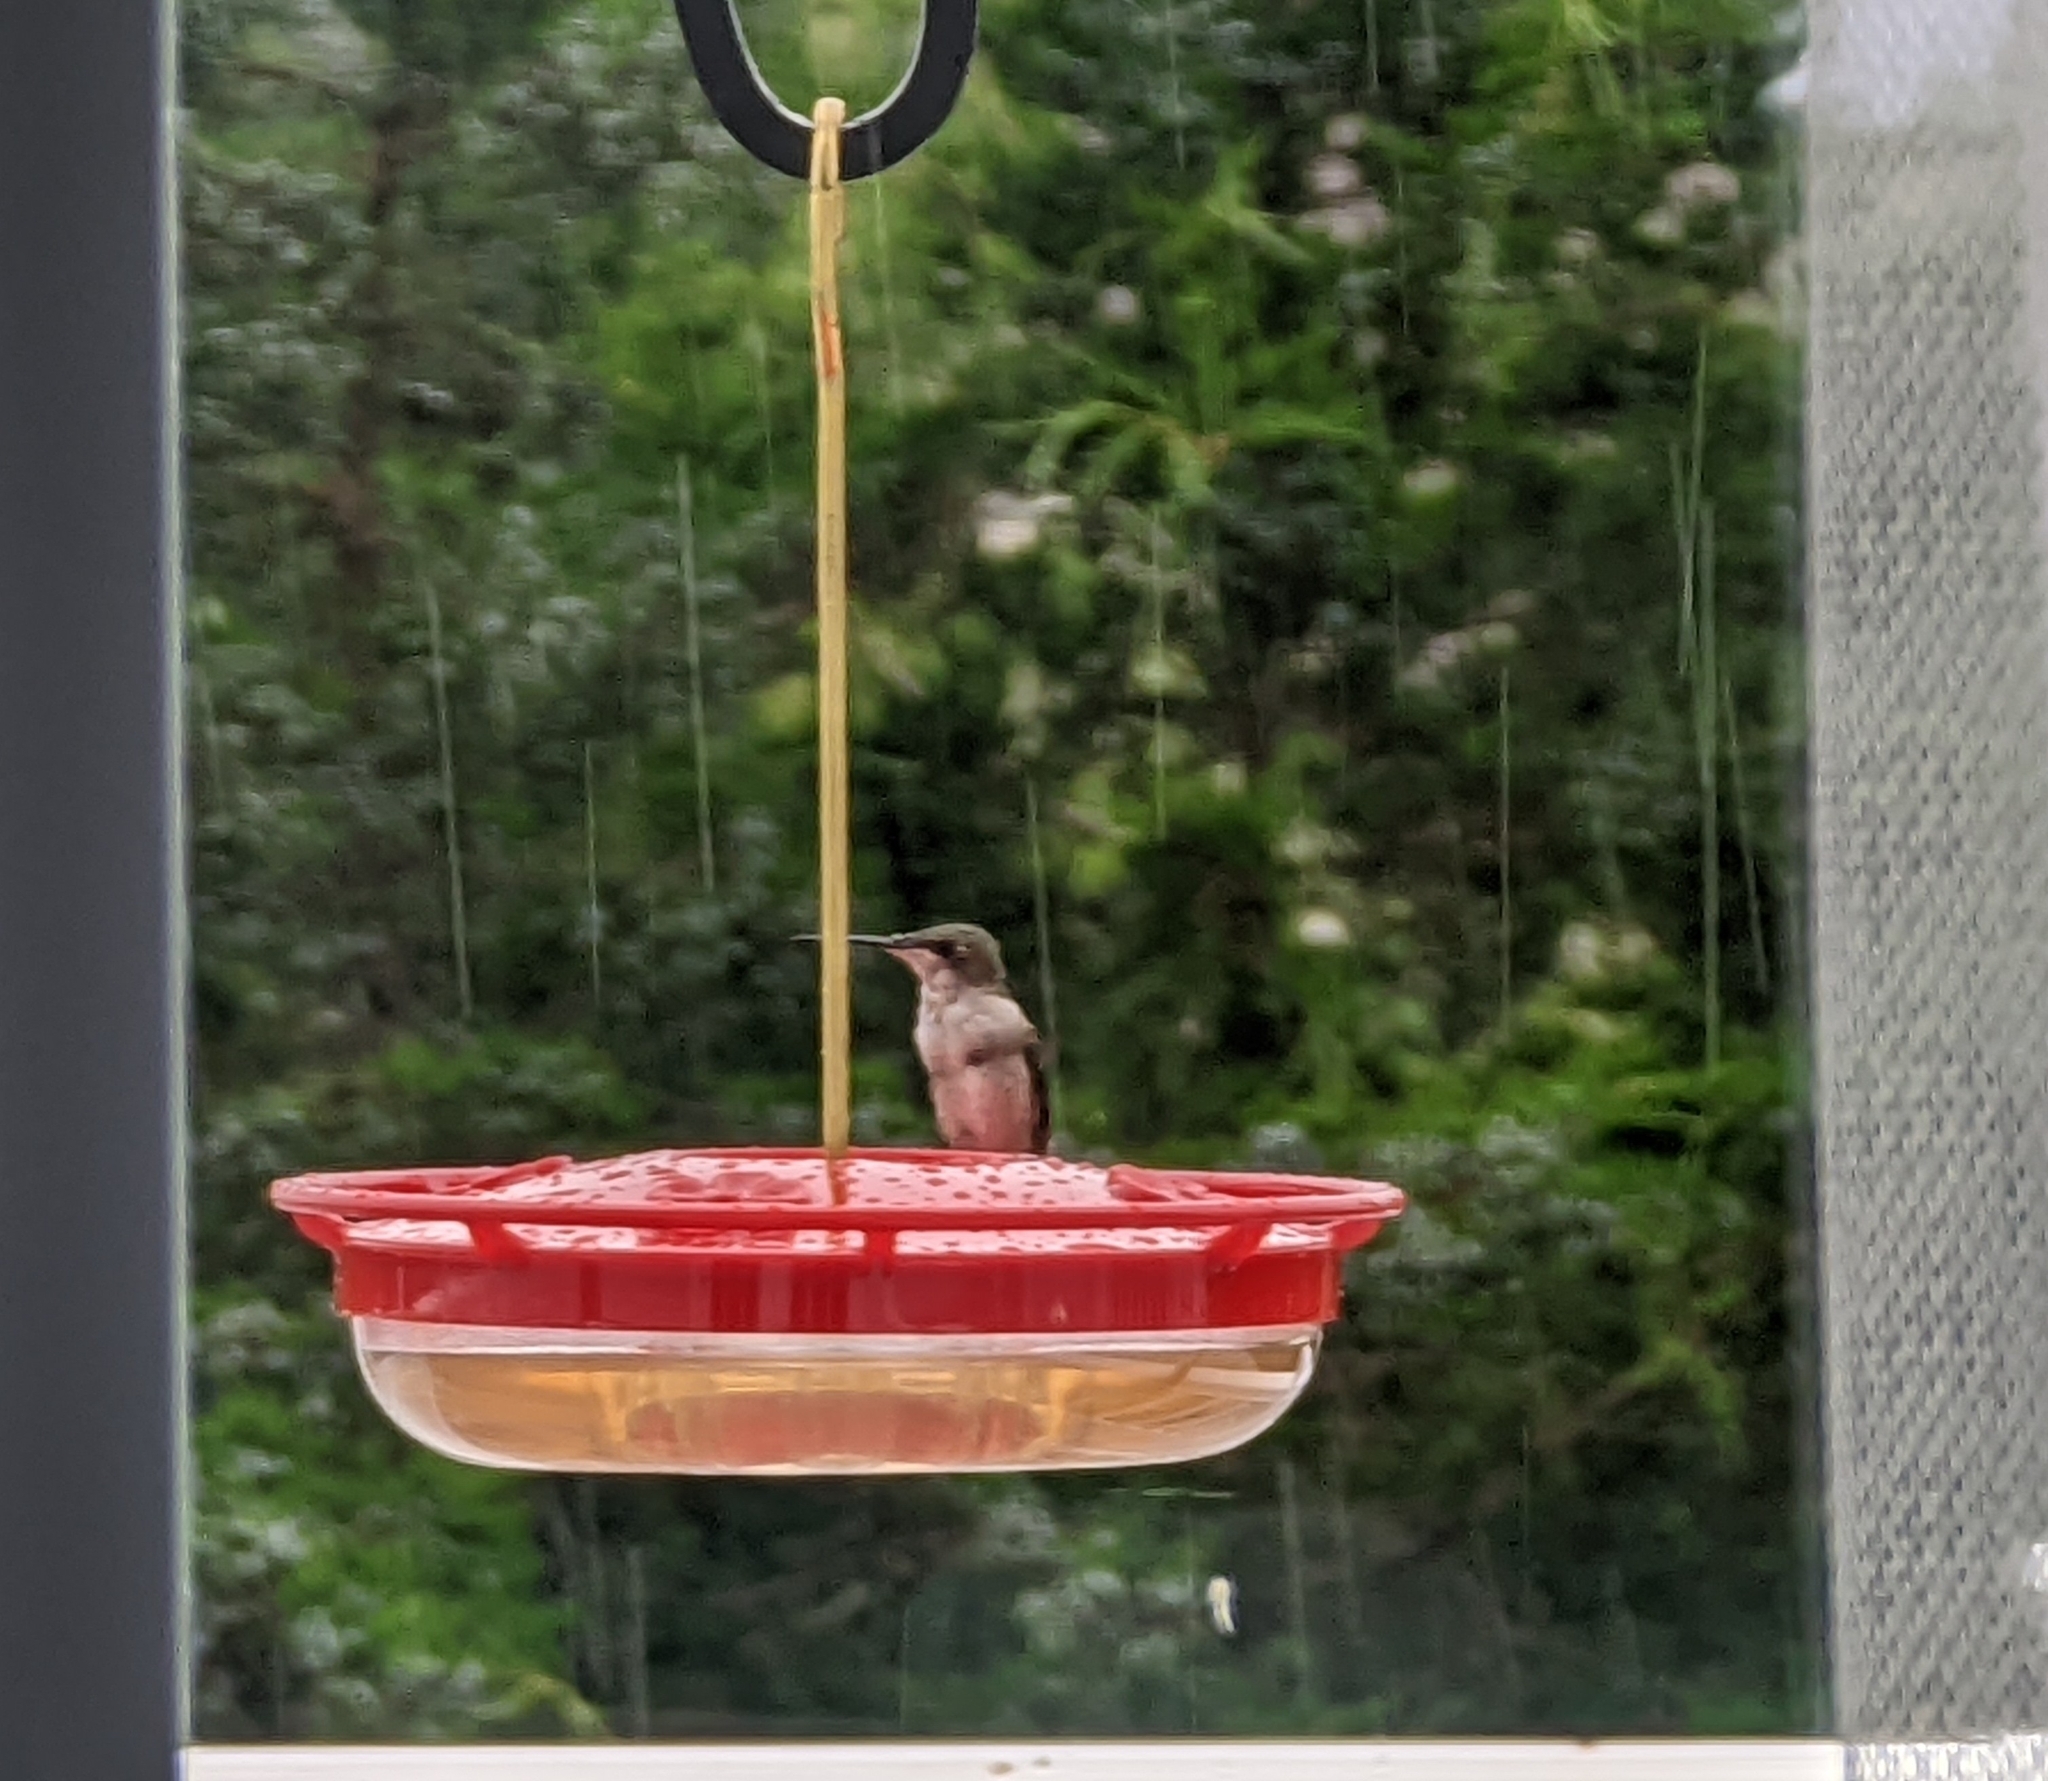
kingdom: Animalia
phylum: Chordata
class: Aves
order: Apodiformes
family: Trochilidae
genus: Archilochus
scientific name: Archilochus colubris
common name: Ruby-throated hummingbird
